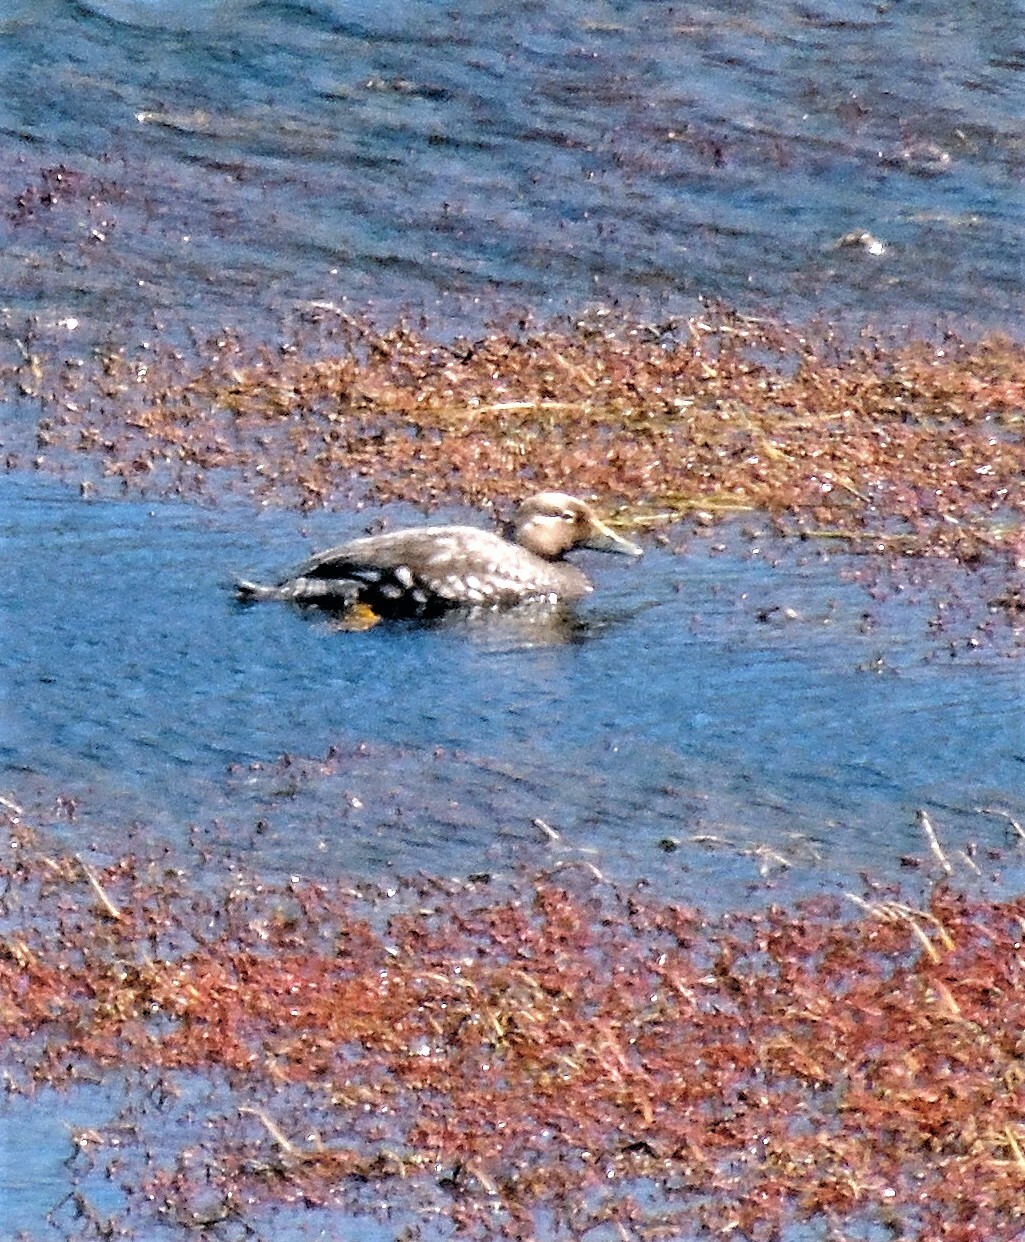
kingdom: Animalia
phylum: Chordata
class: Aves
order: Anseriformes
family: Anatidae
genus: Tachyeres
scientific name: Tachyeres patachonicus
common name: Flying steamer duck
